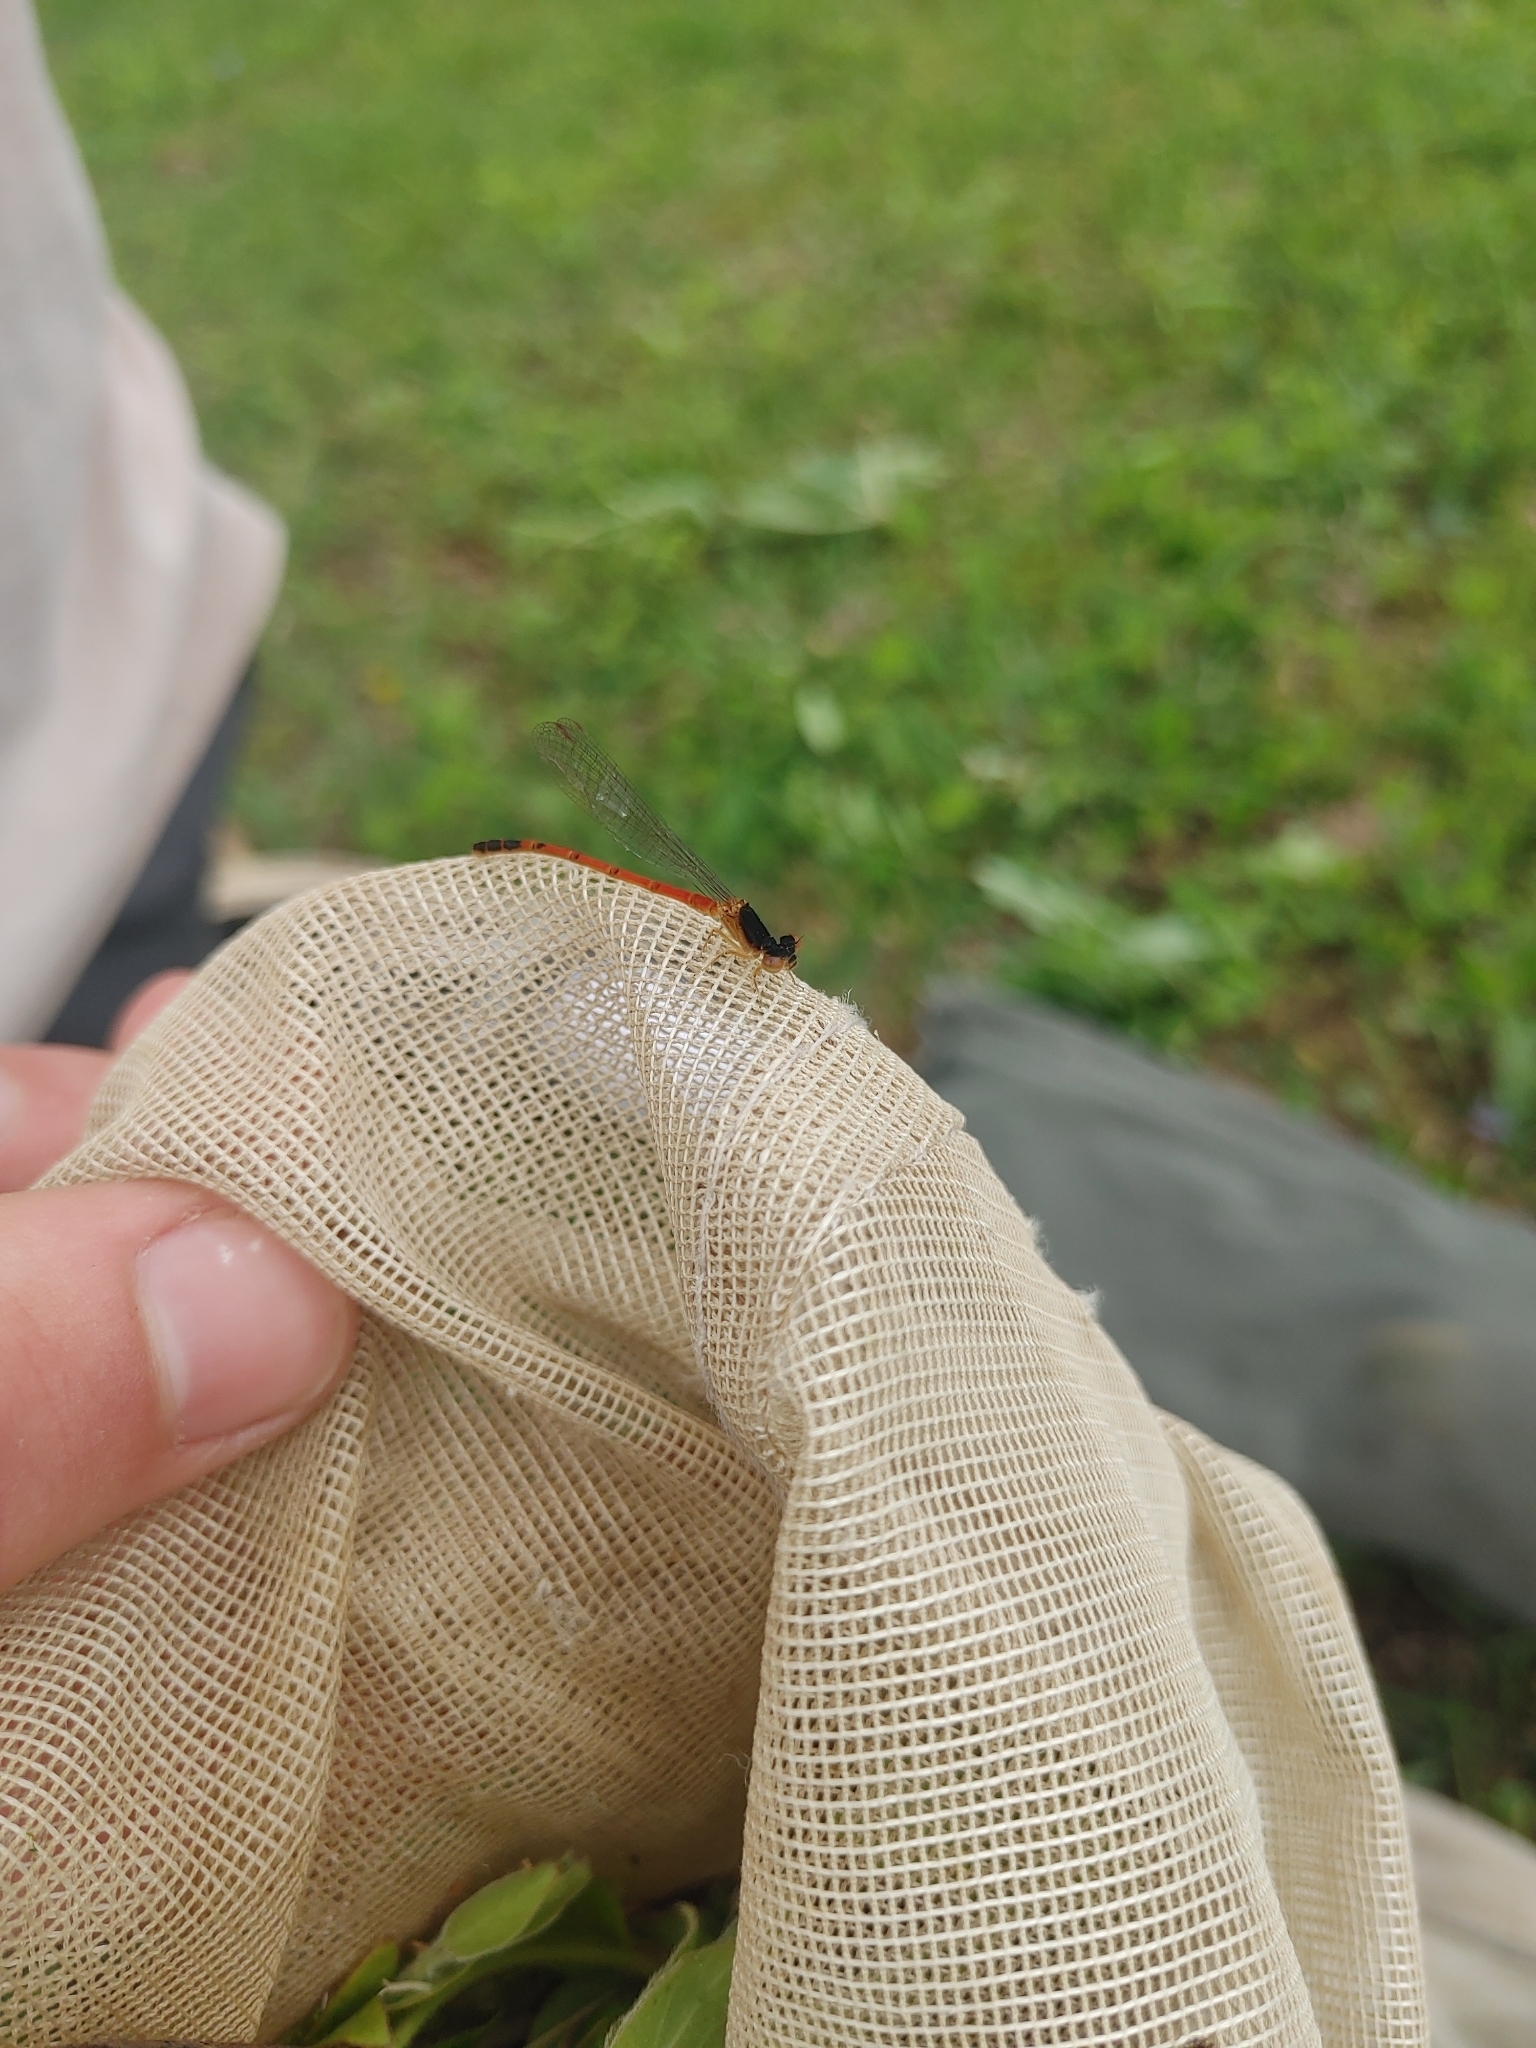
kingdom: Animalia
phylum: Arthropoda
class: Insecta
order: Odonata
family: Coenagrionidae
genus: Amphiagrion
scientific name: Amphiagrion saucium
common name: Eastern red damsel
